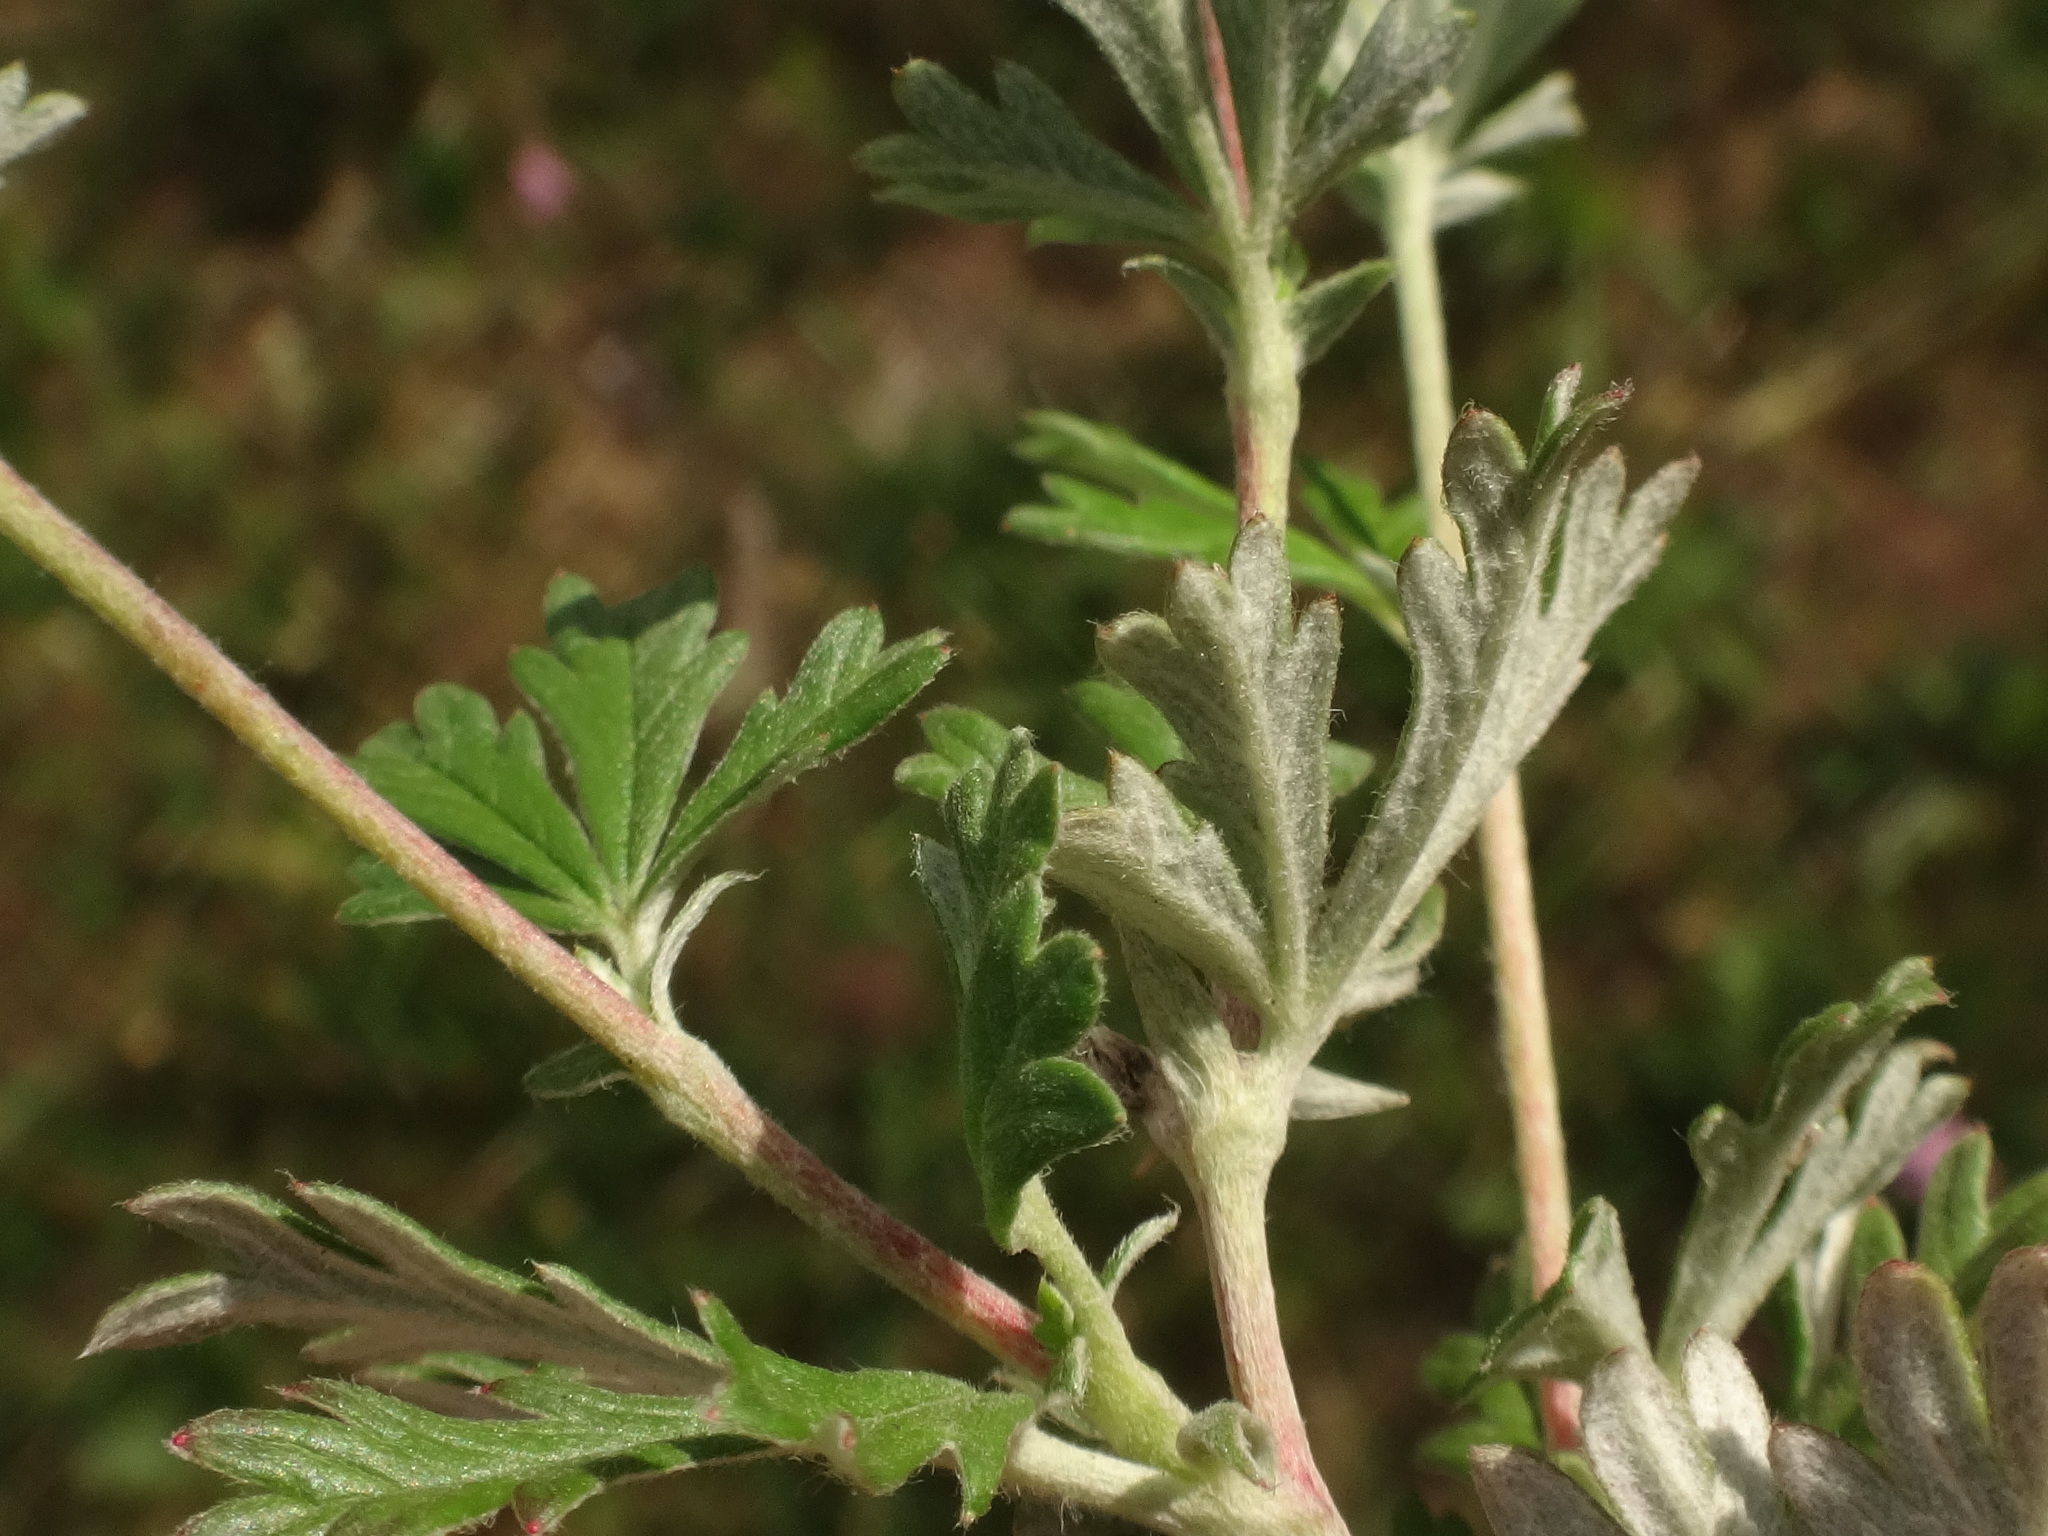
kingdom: Plantae
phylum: Tracheophyta
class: Magnoliopsida
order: Rosales
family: Rosaceae
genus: Potentilla
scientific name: Potentilla argentea
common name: Hoary cinquefoil
